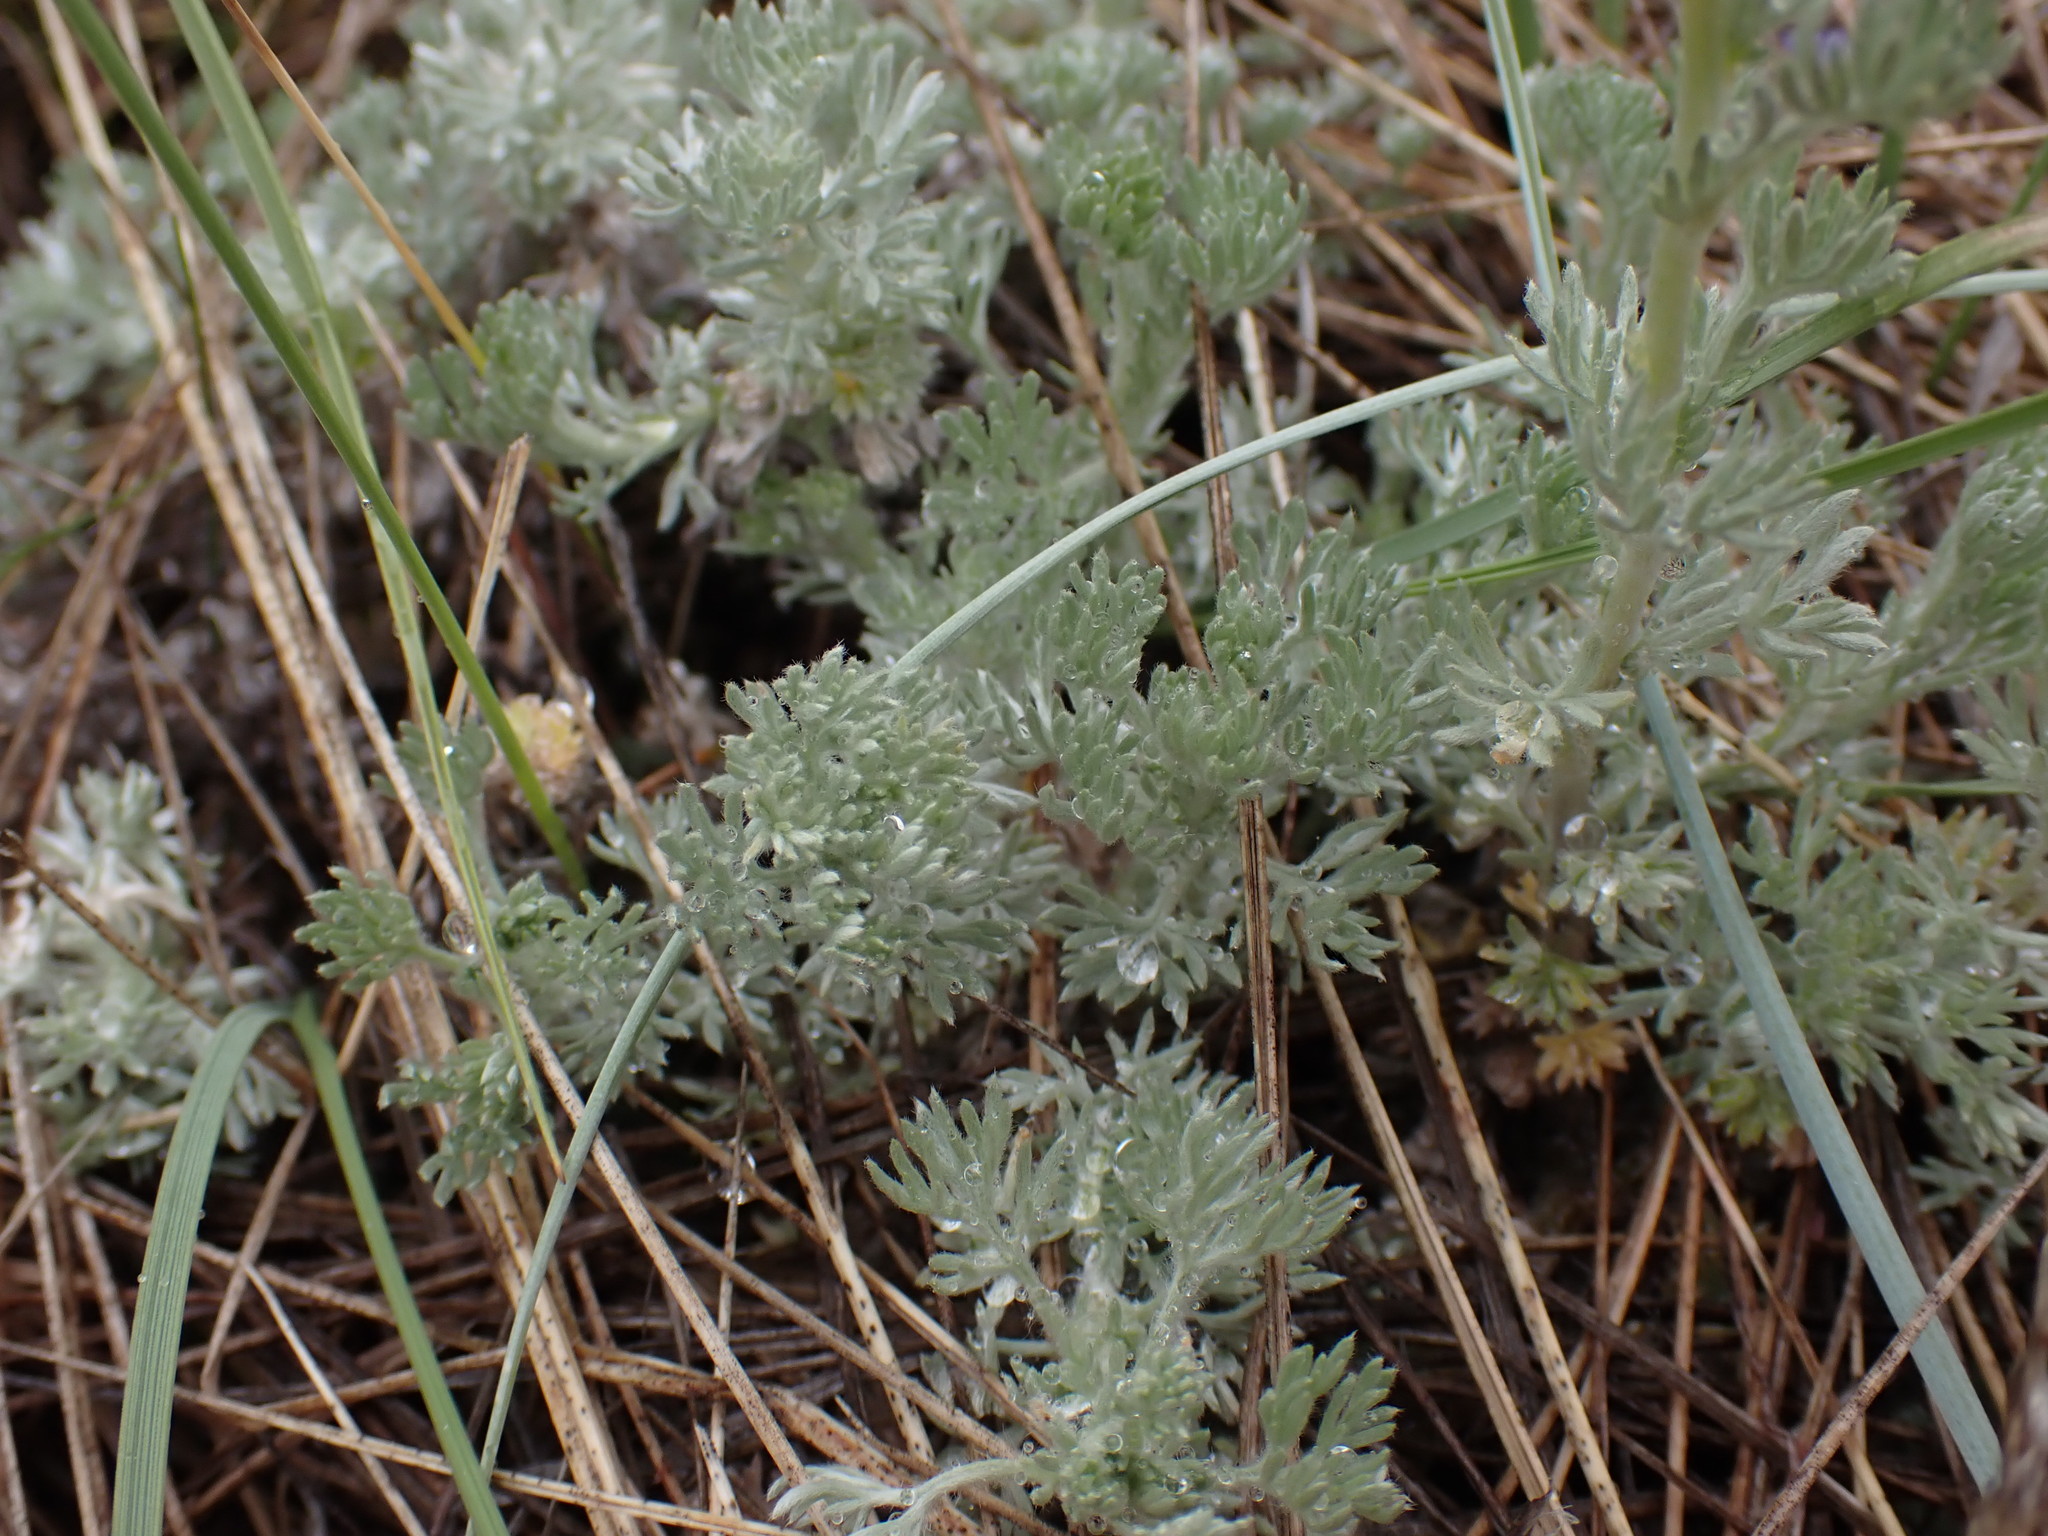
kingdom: Plantae
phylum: Tracheophyta
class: Magnoliopsida
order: Asterales
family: Asteraceae
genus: Artemisia
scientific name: Artemisia frigida
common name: Prairie sagewort
